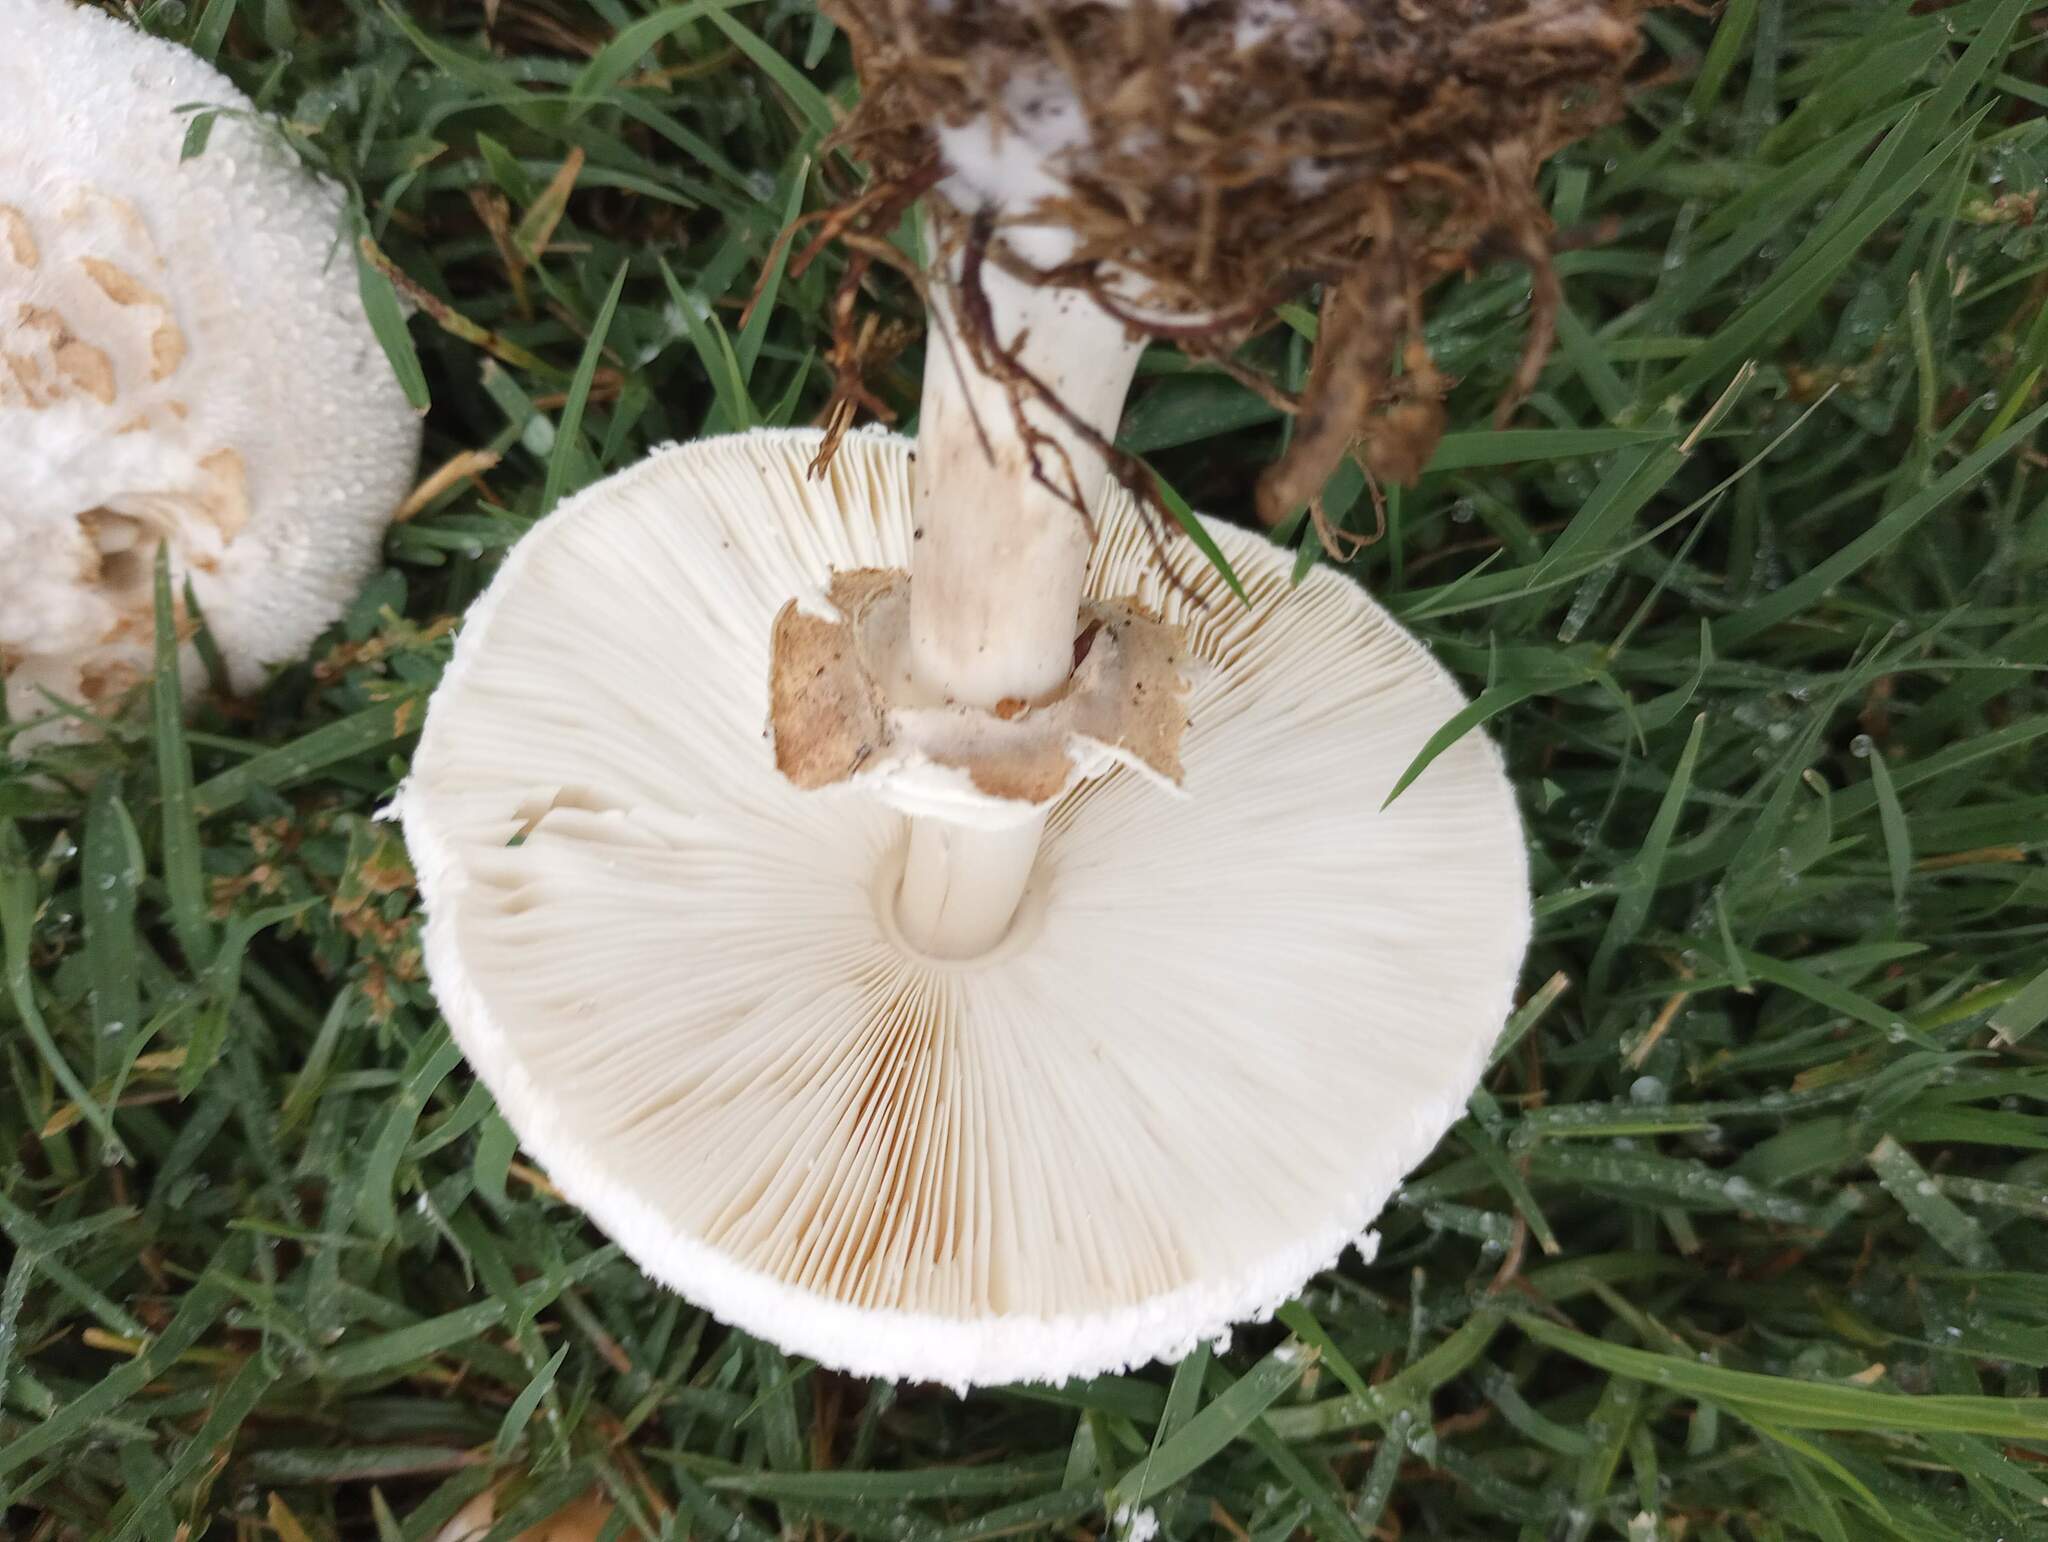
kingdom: Fungi
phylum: Basidiomycota
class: Agaricomycetes
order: Agaricales
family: Agaricaceae
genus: Chlorophyllum
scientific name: Chlorophyllum molybdites
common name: False parasol
